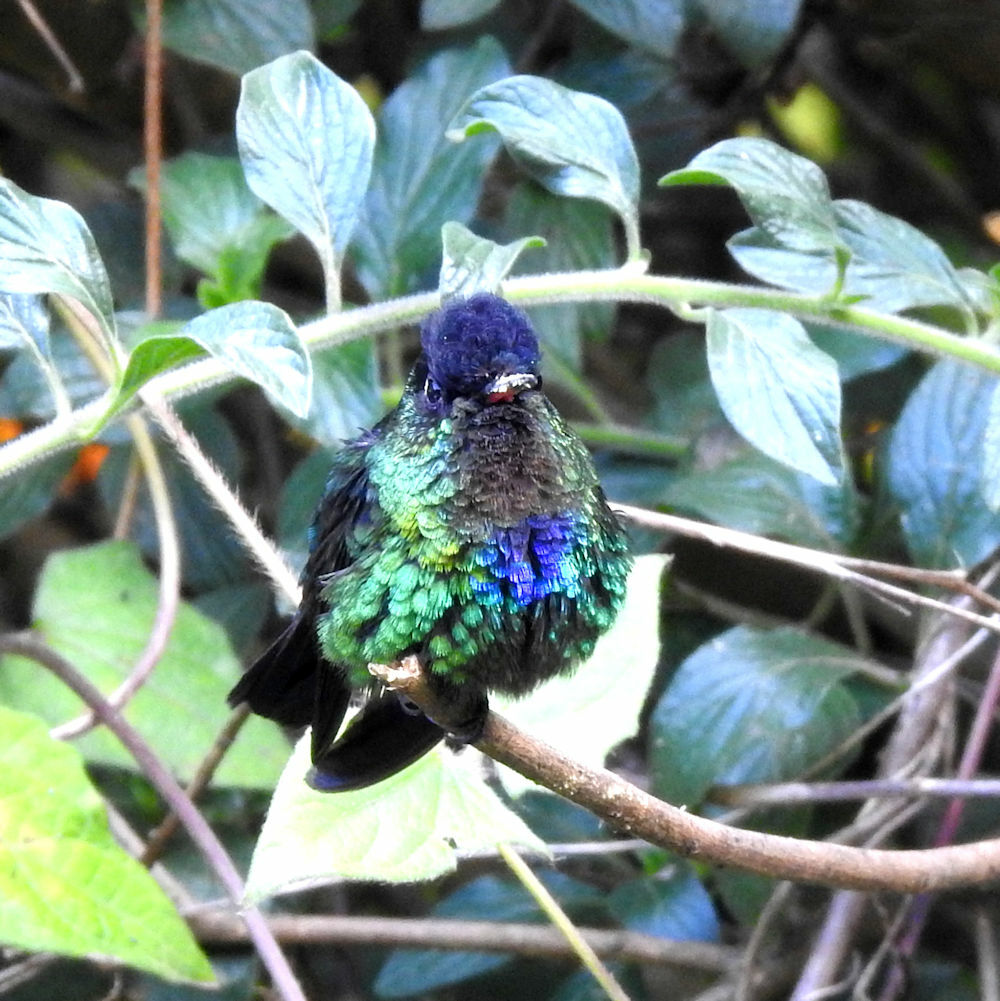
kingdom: Animalia
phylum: Chordata
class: Aves
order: Apodiformes
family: Trochilidae
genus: Panterpe
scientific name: Panterpe insignis
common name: Fiery-throated hummingbird
